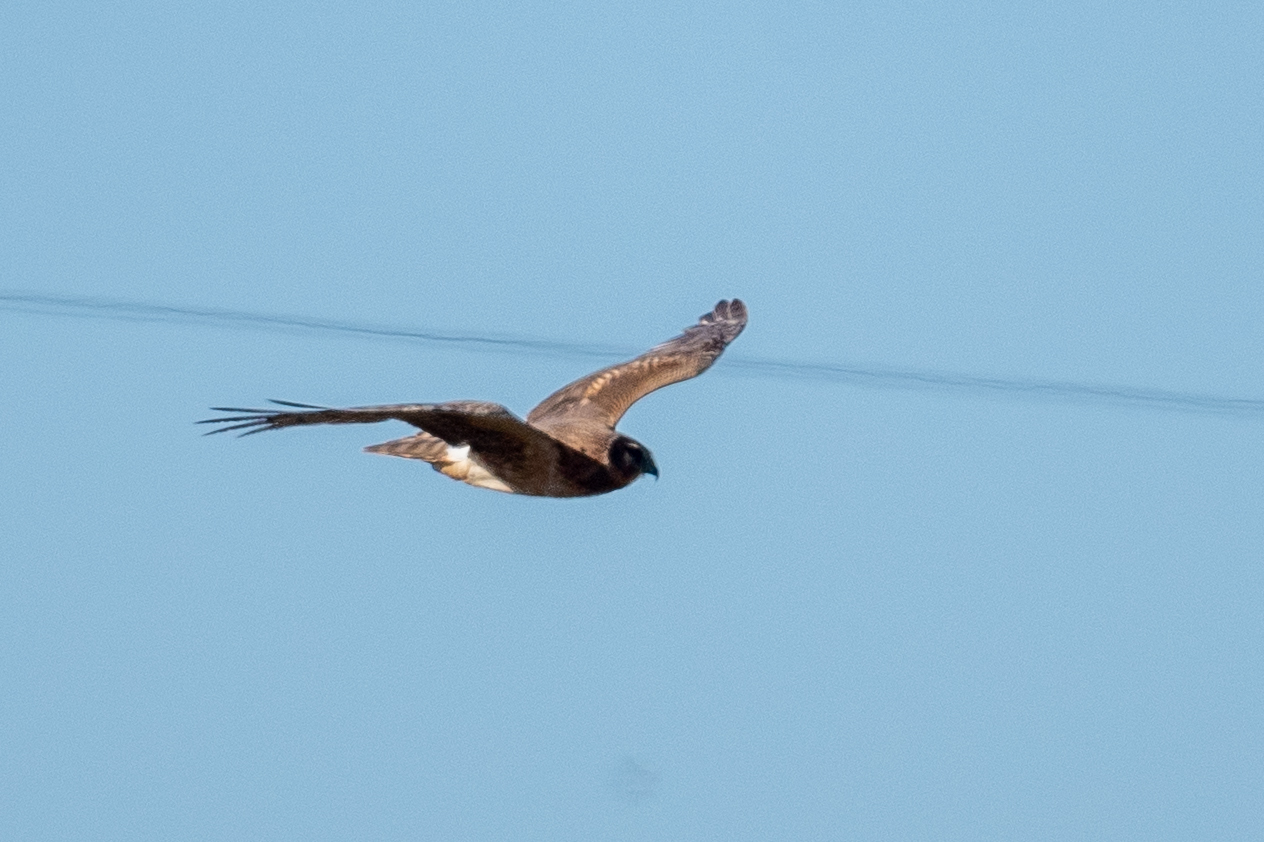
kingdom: Animalia
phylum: Chordata
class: Aves
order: Accipitriformes
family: Accipitridae
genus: Circus
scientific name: Circus cyaneus
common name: Hen harrier
